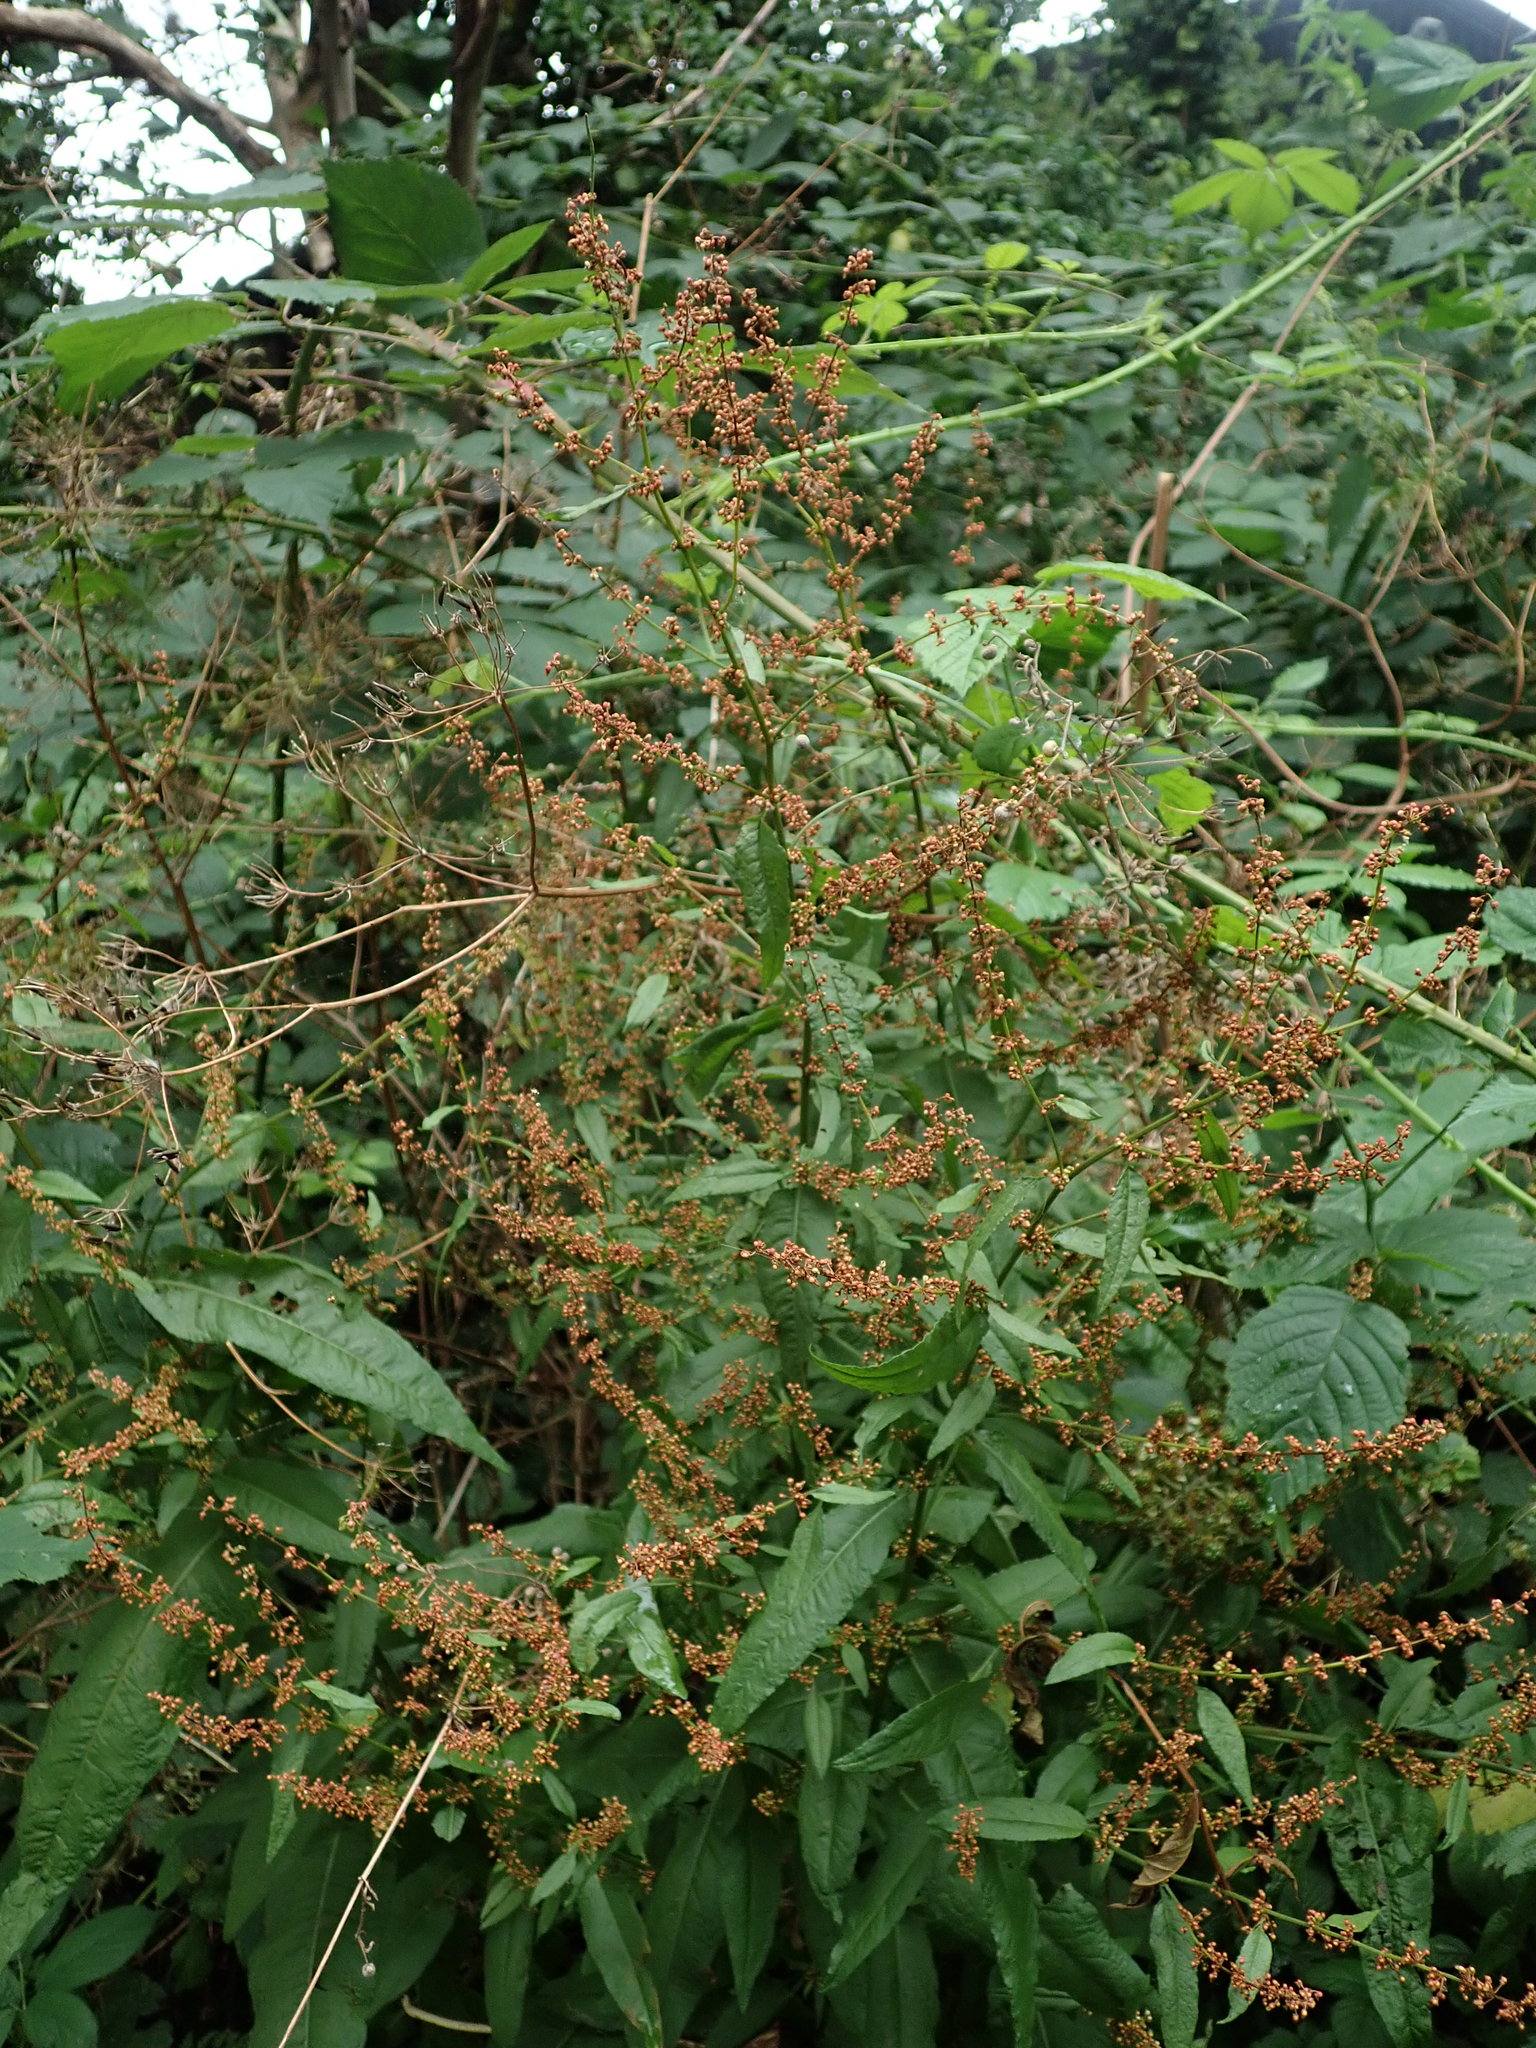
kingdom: Plantae
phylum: Tracheophyta
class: Magnoliopsida
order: Caryophyllales
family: Polygonaceae
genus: Rumex
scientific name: Rumex sanguineus
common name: Wood dock
